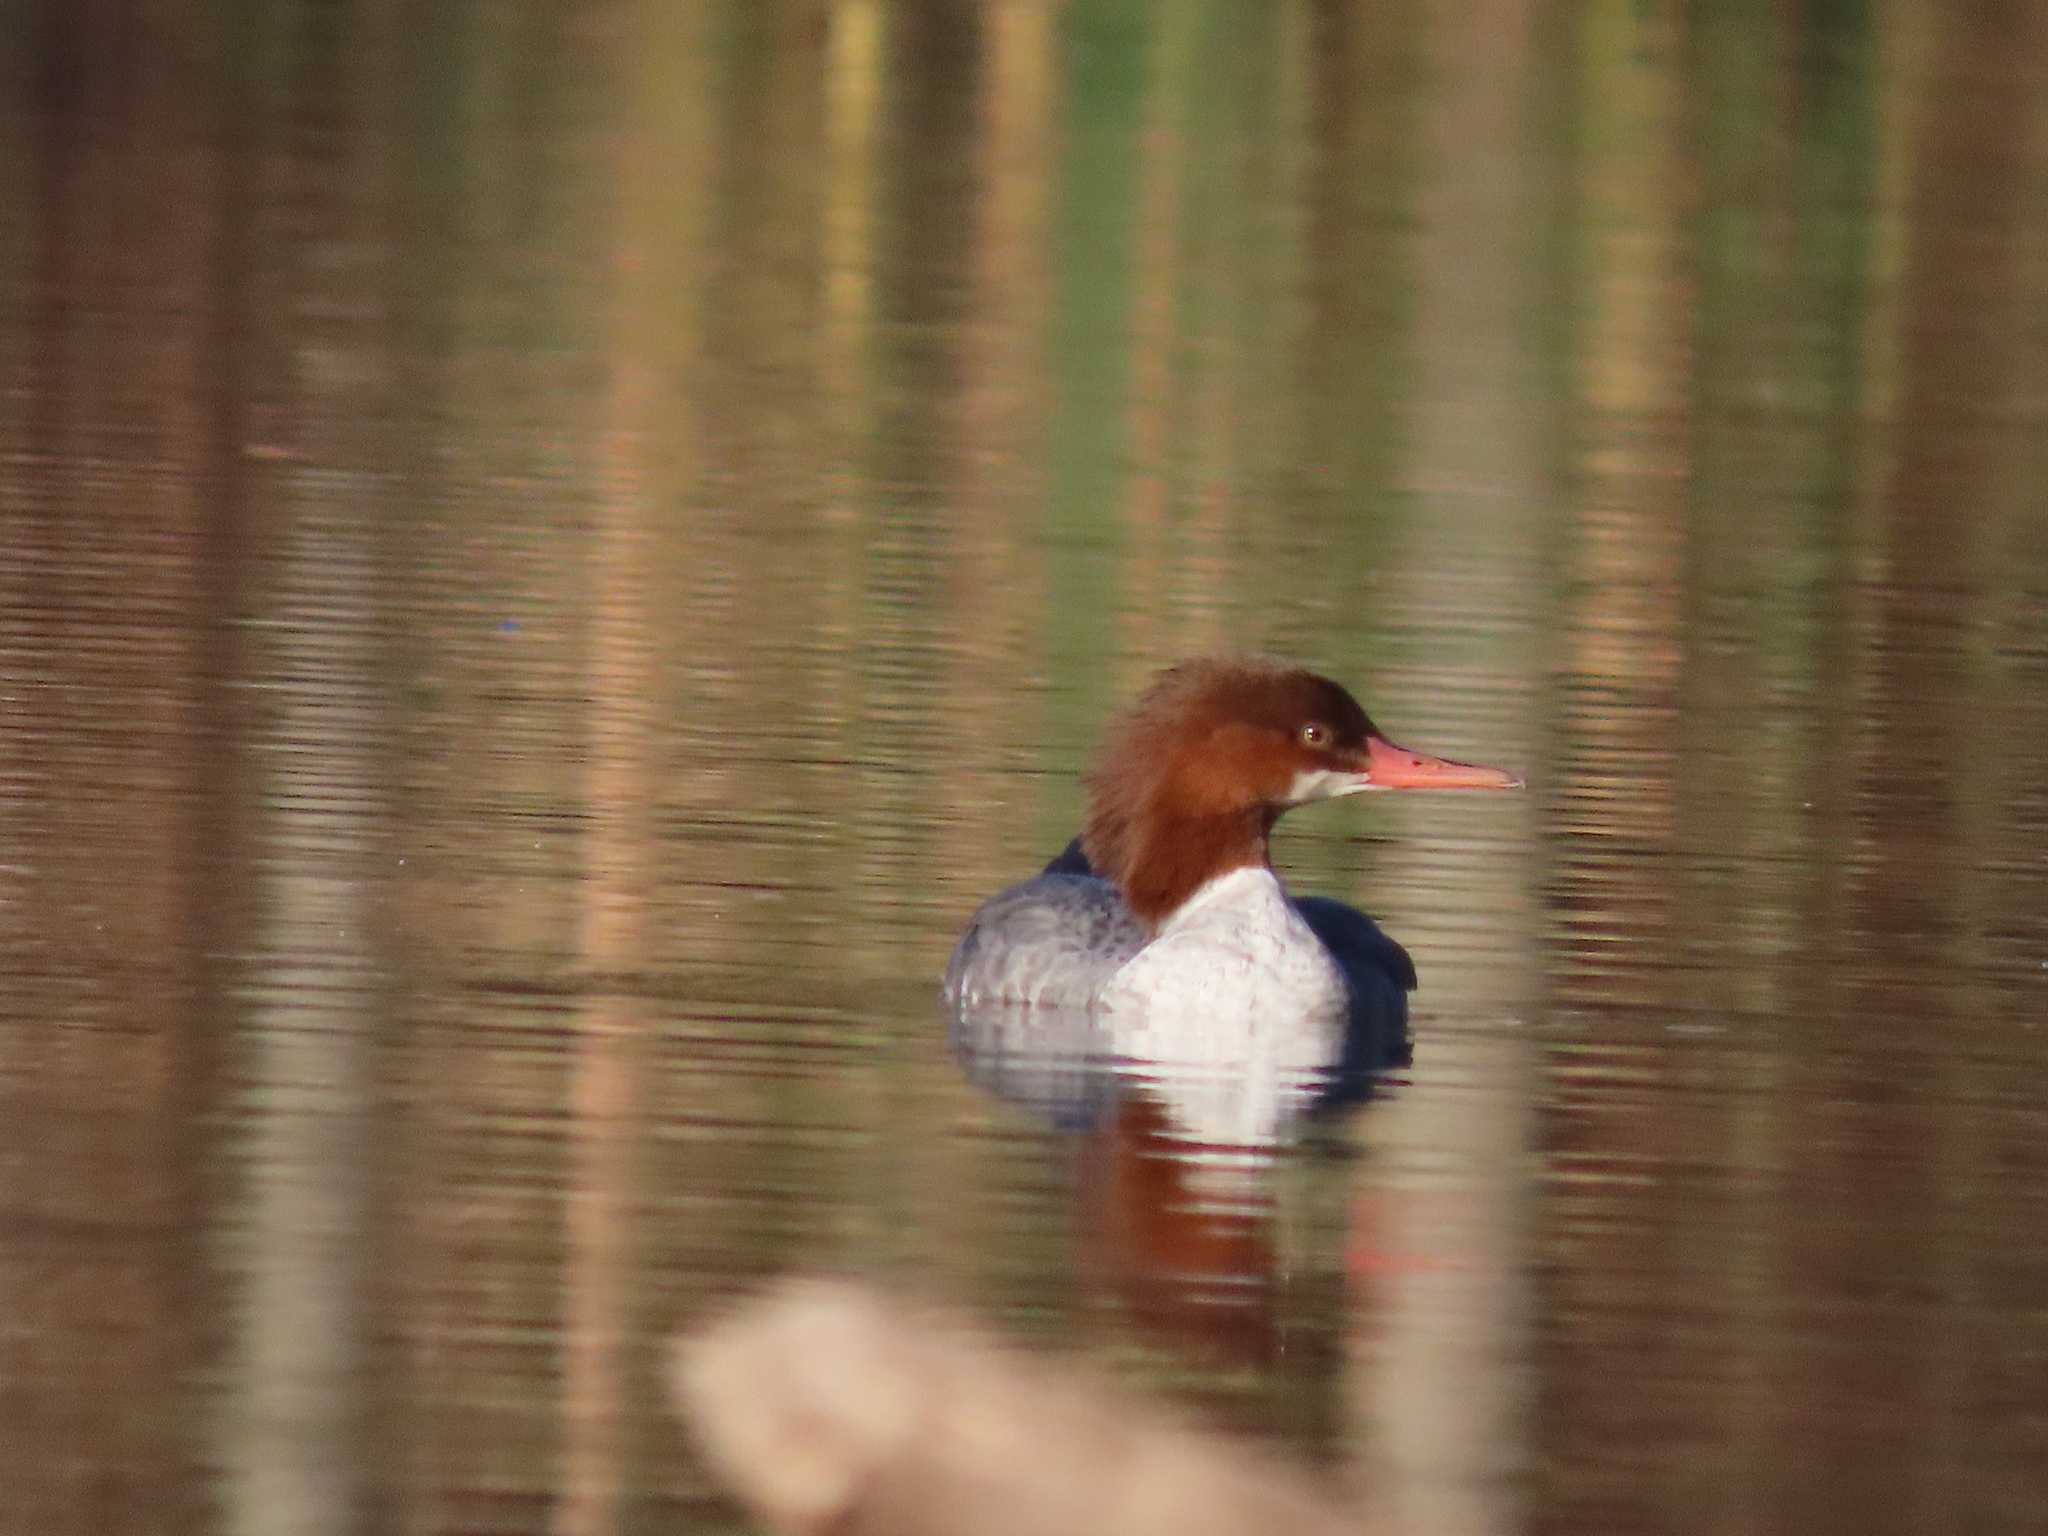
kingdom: Animalia
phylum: Chordata
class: Aves
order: Anseriformes
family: Anatidae
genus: Mergus
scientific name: Mergus merganser
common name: Common merganser
